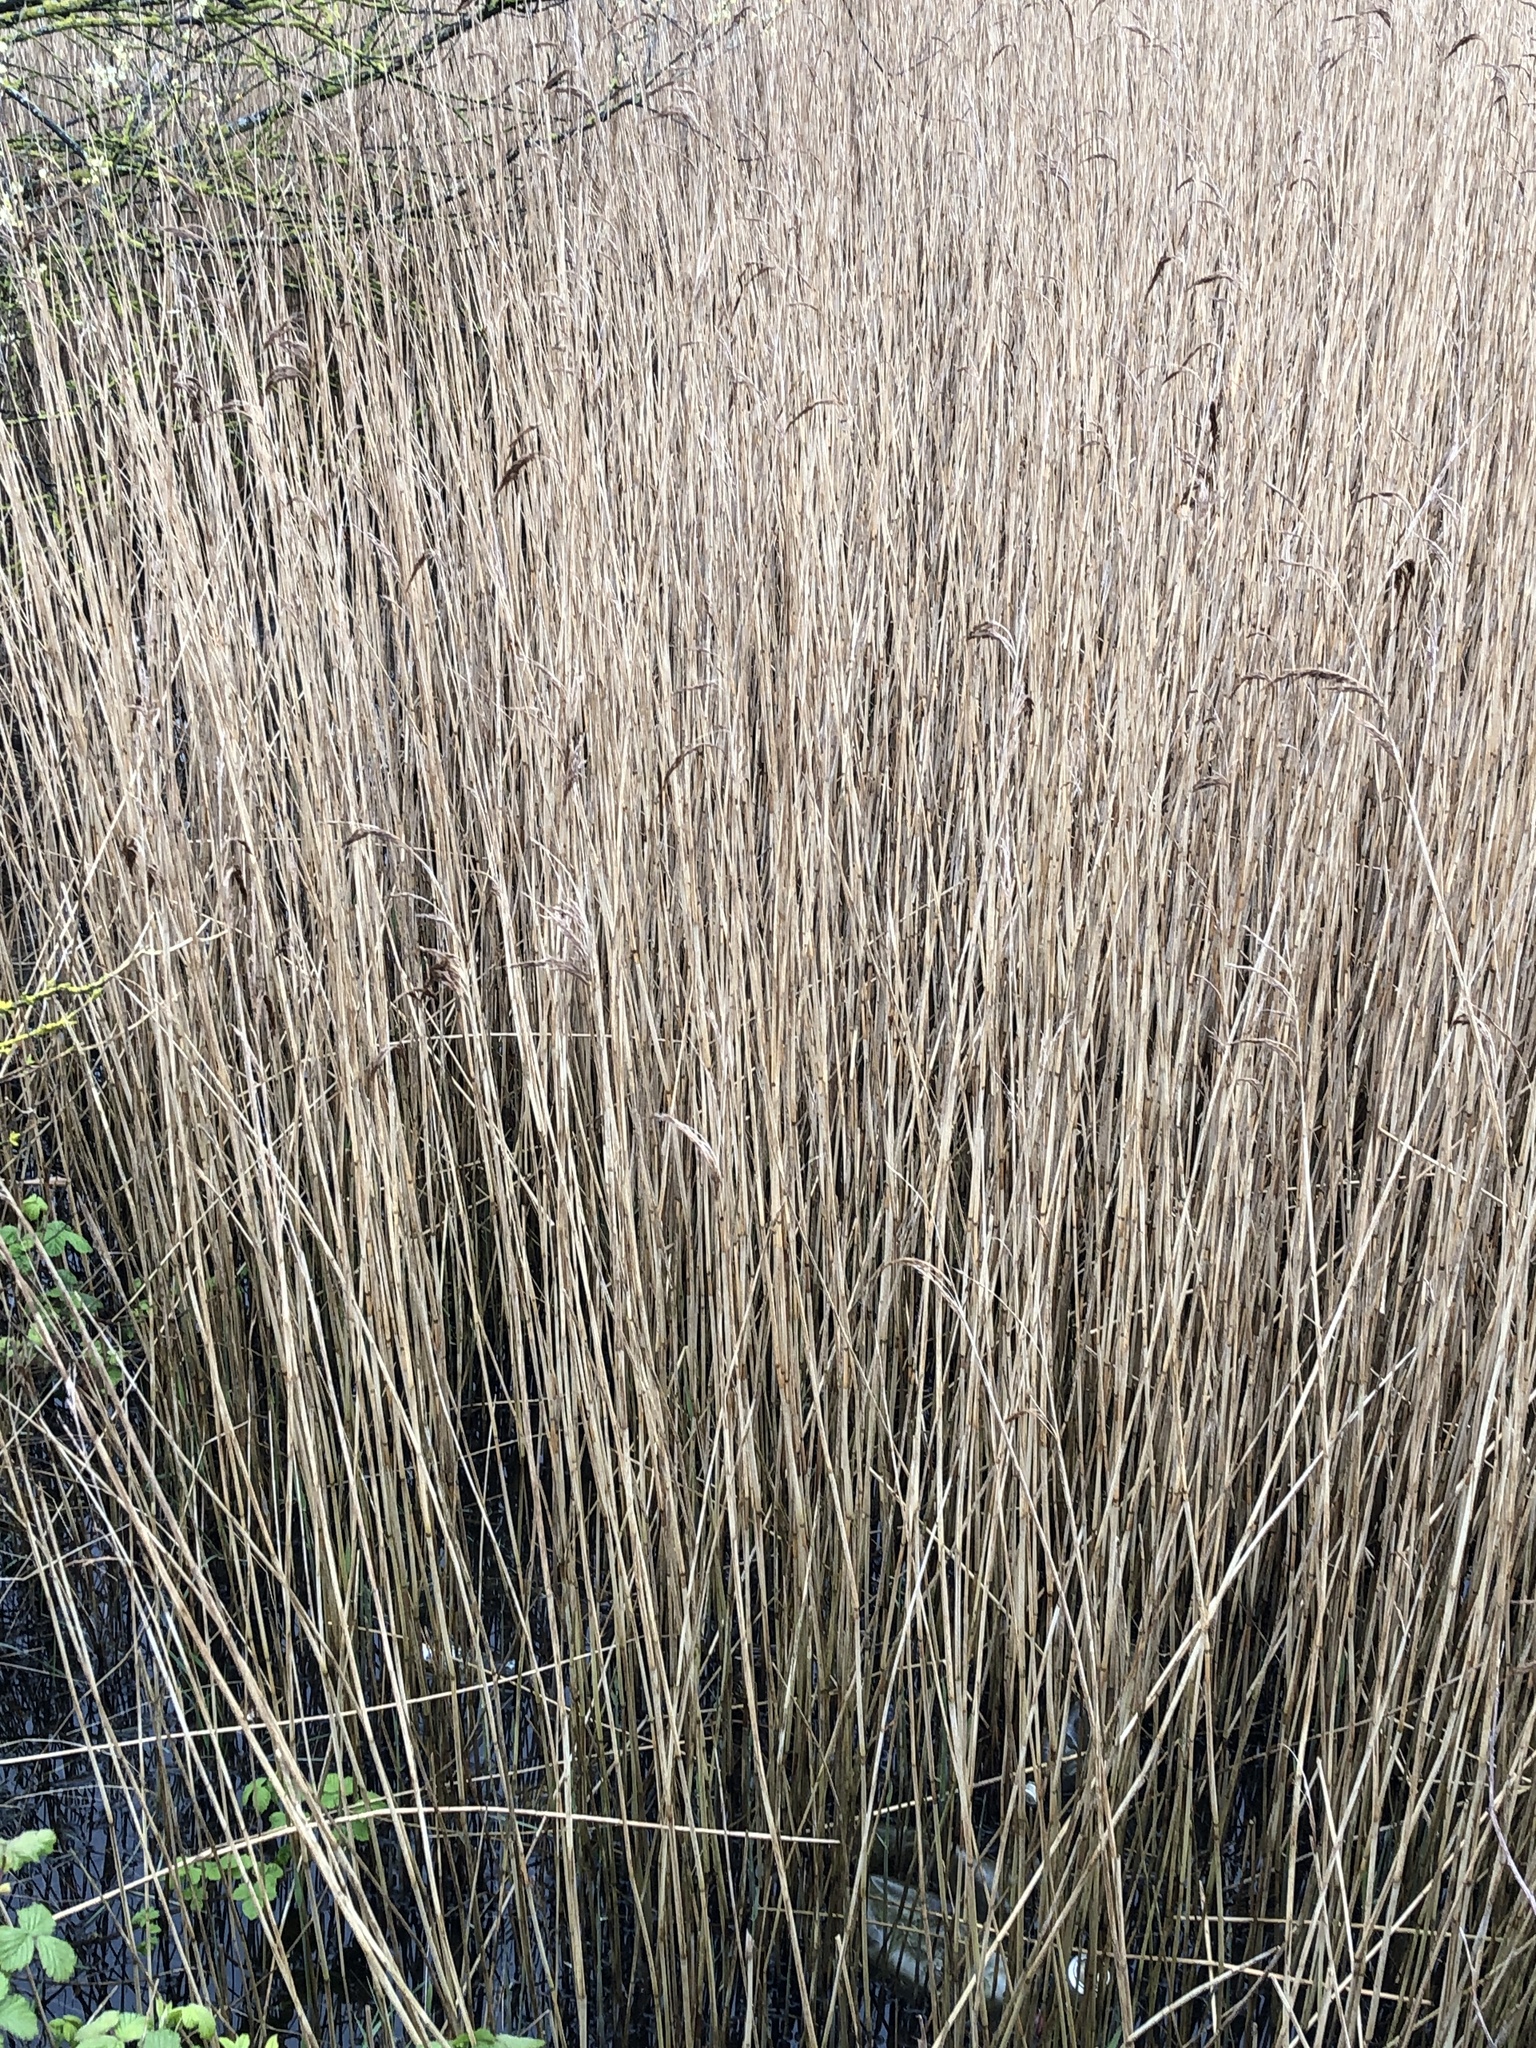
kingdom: Plantae
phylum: Tracheophyta
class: Liliopsida
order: Poales
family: Poaceae
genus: Phragmites
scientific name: Phragmites australis
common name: Common reed
